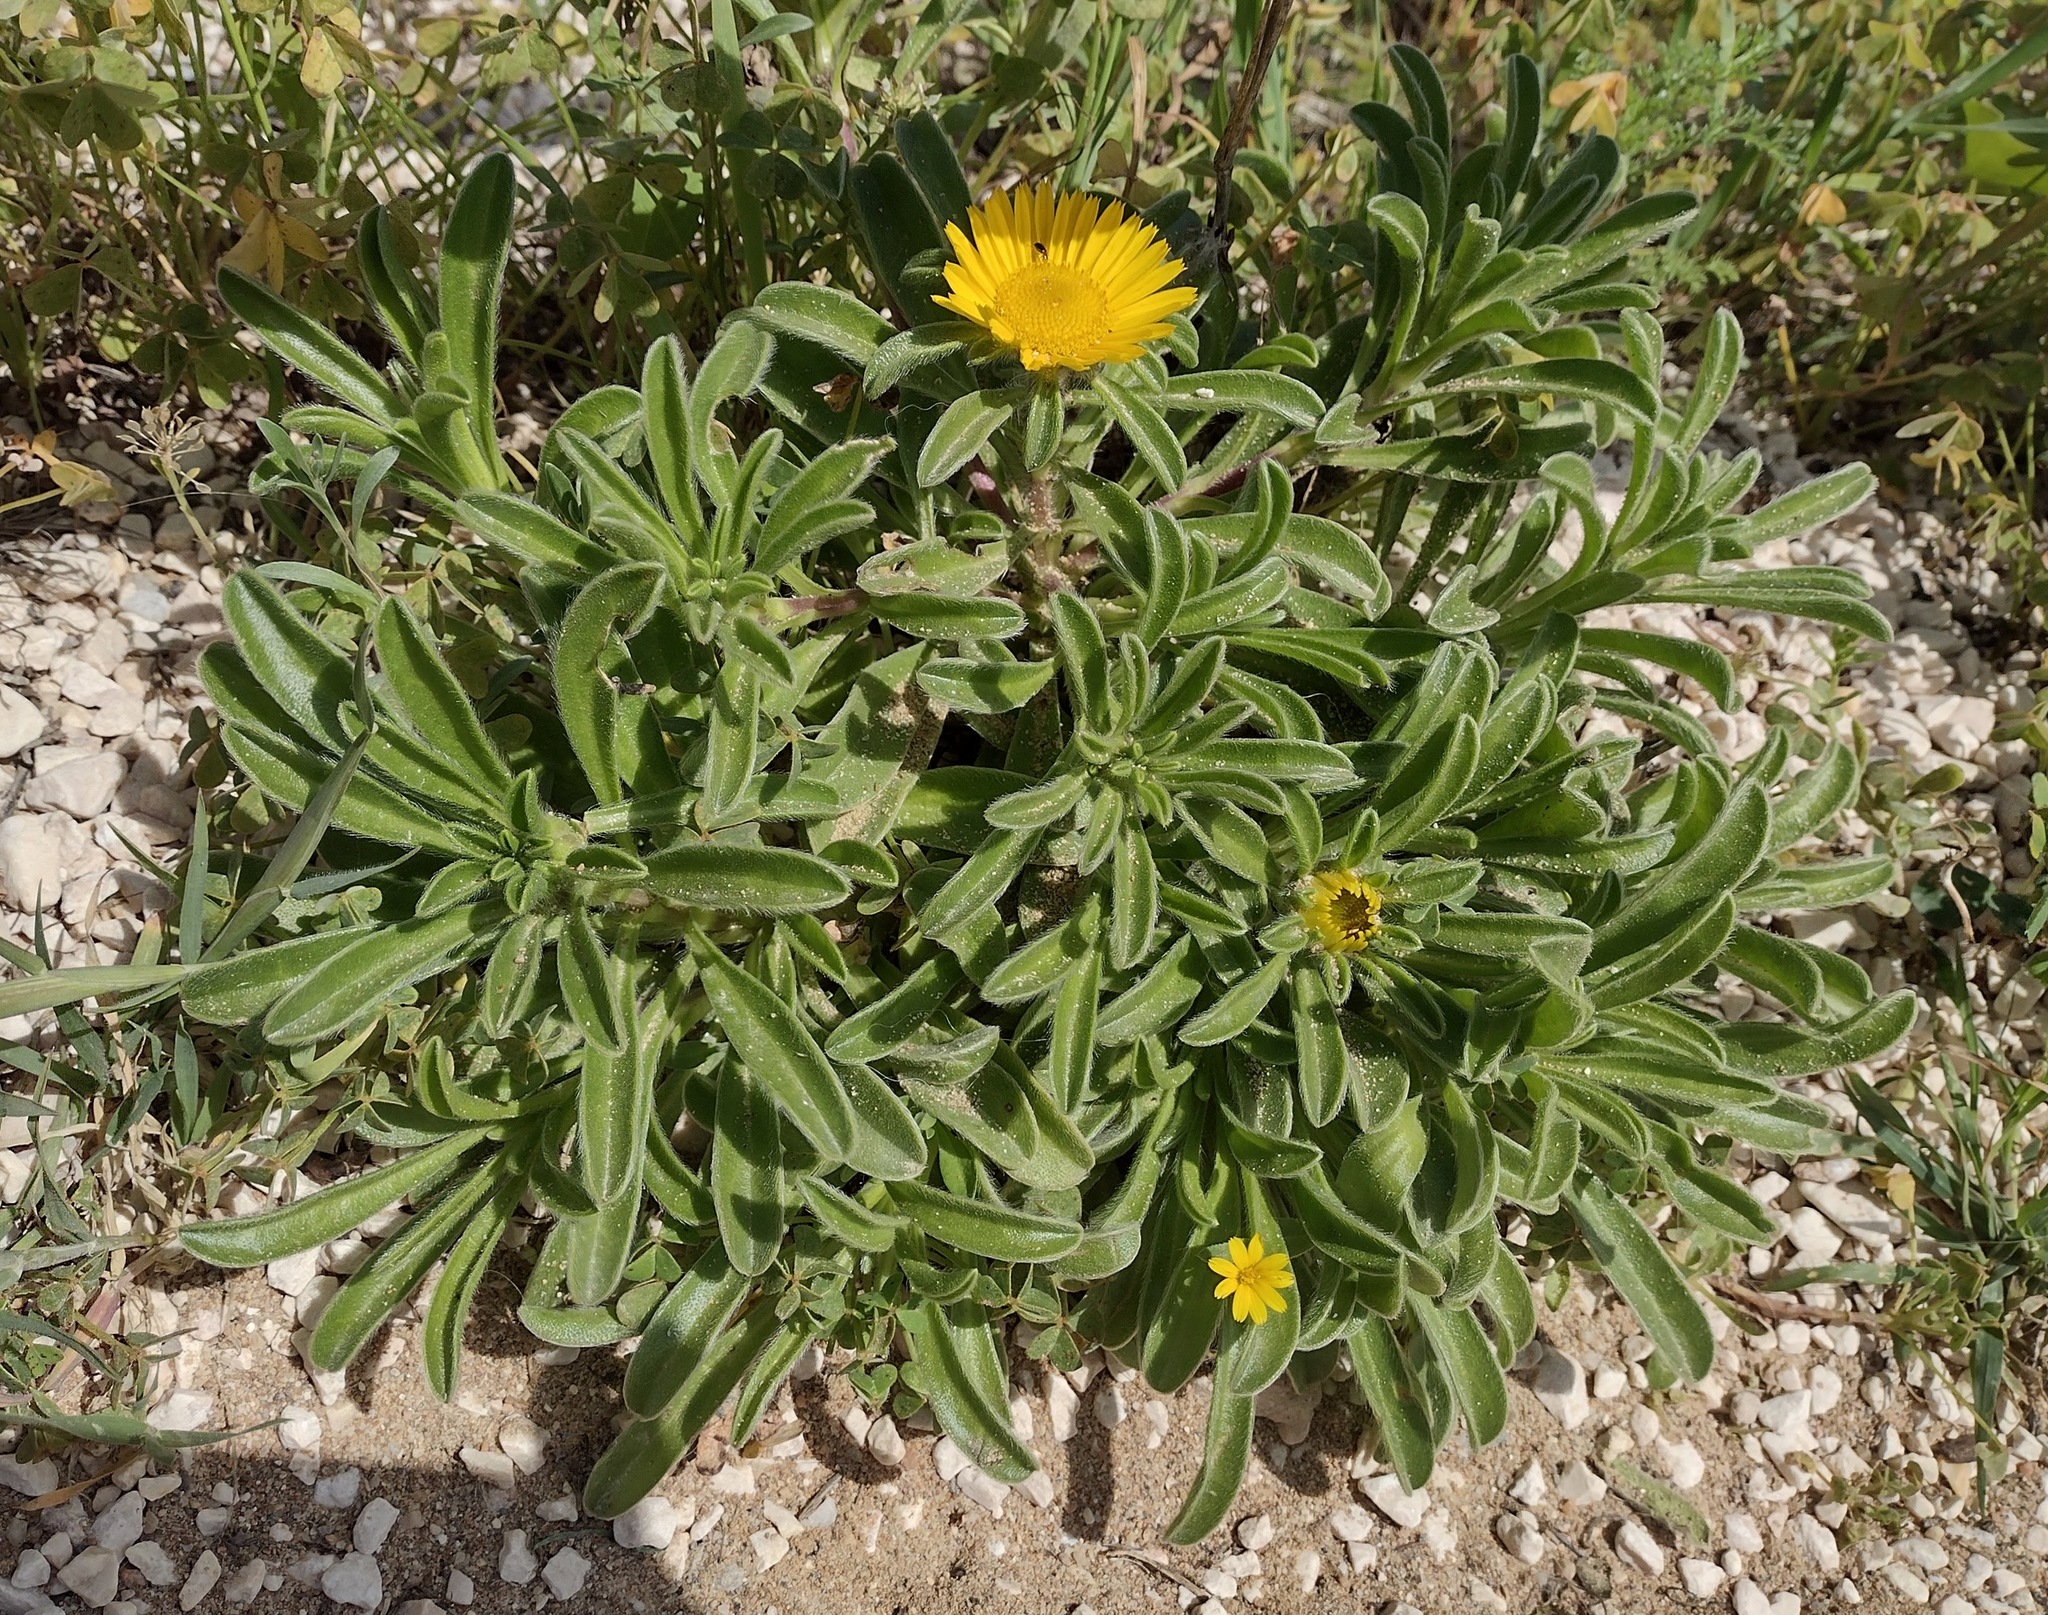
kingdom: Plantae
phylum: Tracheophyta
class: Magnoliopsida
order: Asterales
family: Asteraceae
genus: Pallenis
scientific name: Pallenis maritima
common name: Golden coin daisy
